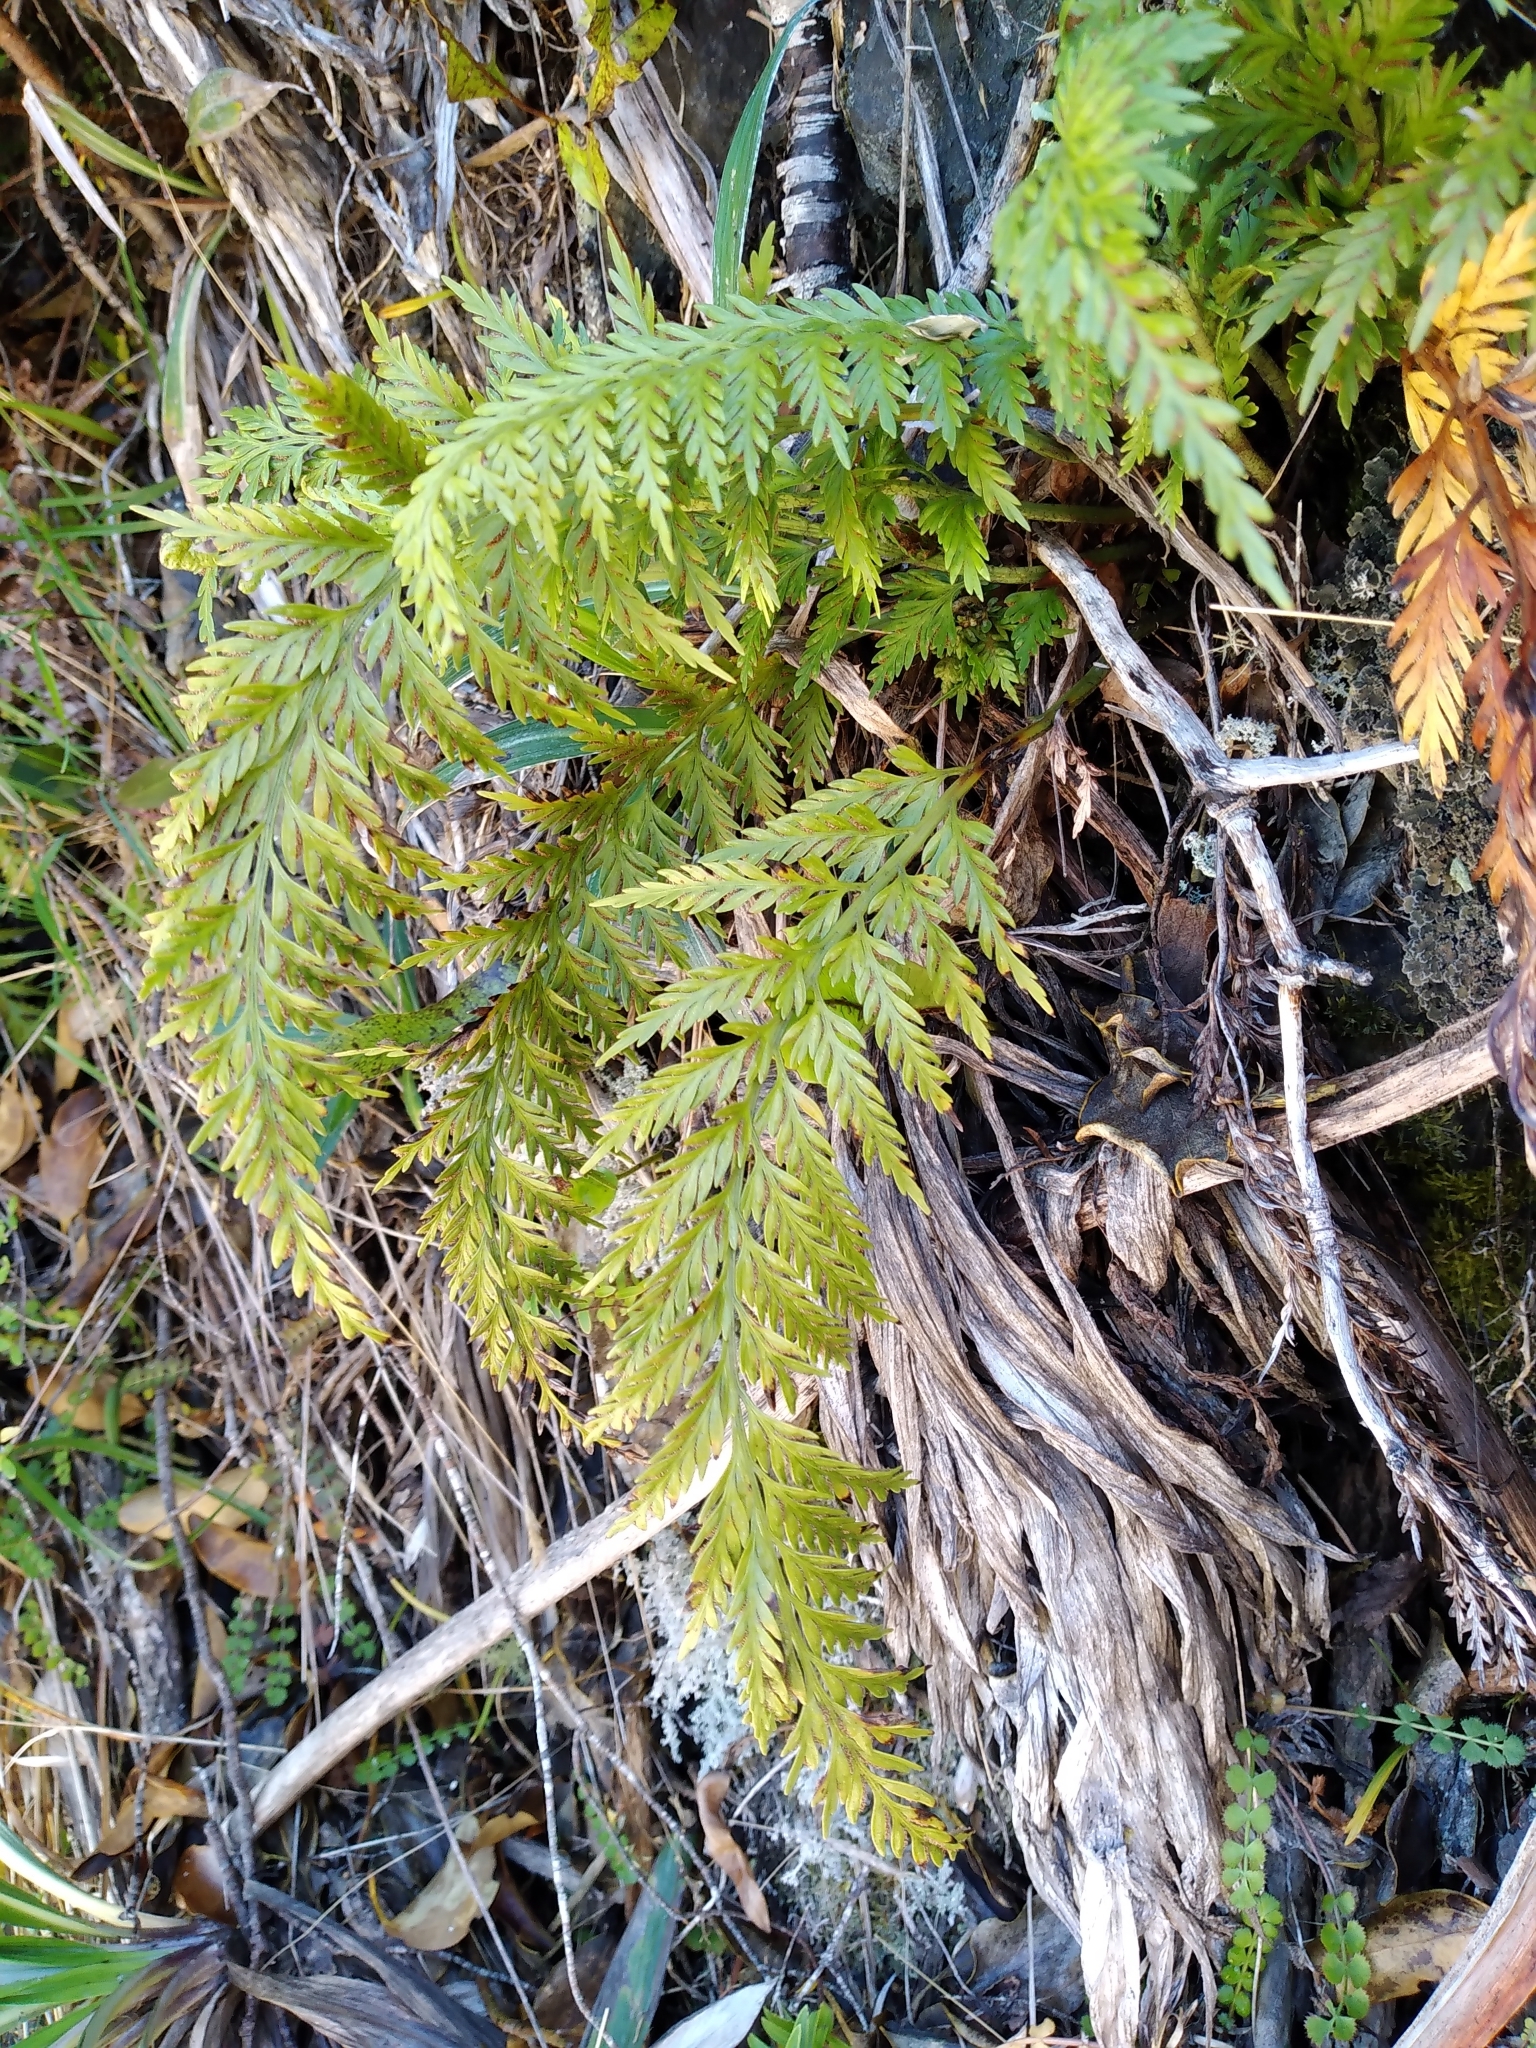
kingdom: Plantae
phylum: Tracheophyta
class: Polypodiopsida
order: Polypodiales
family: Aspleniaceae
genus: Asplenium
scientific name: Asplenium appendiculatum
